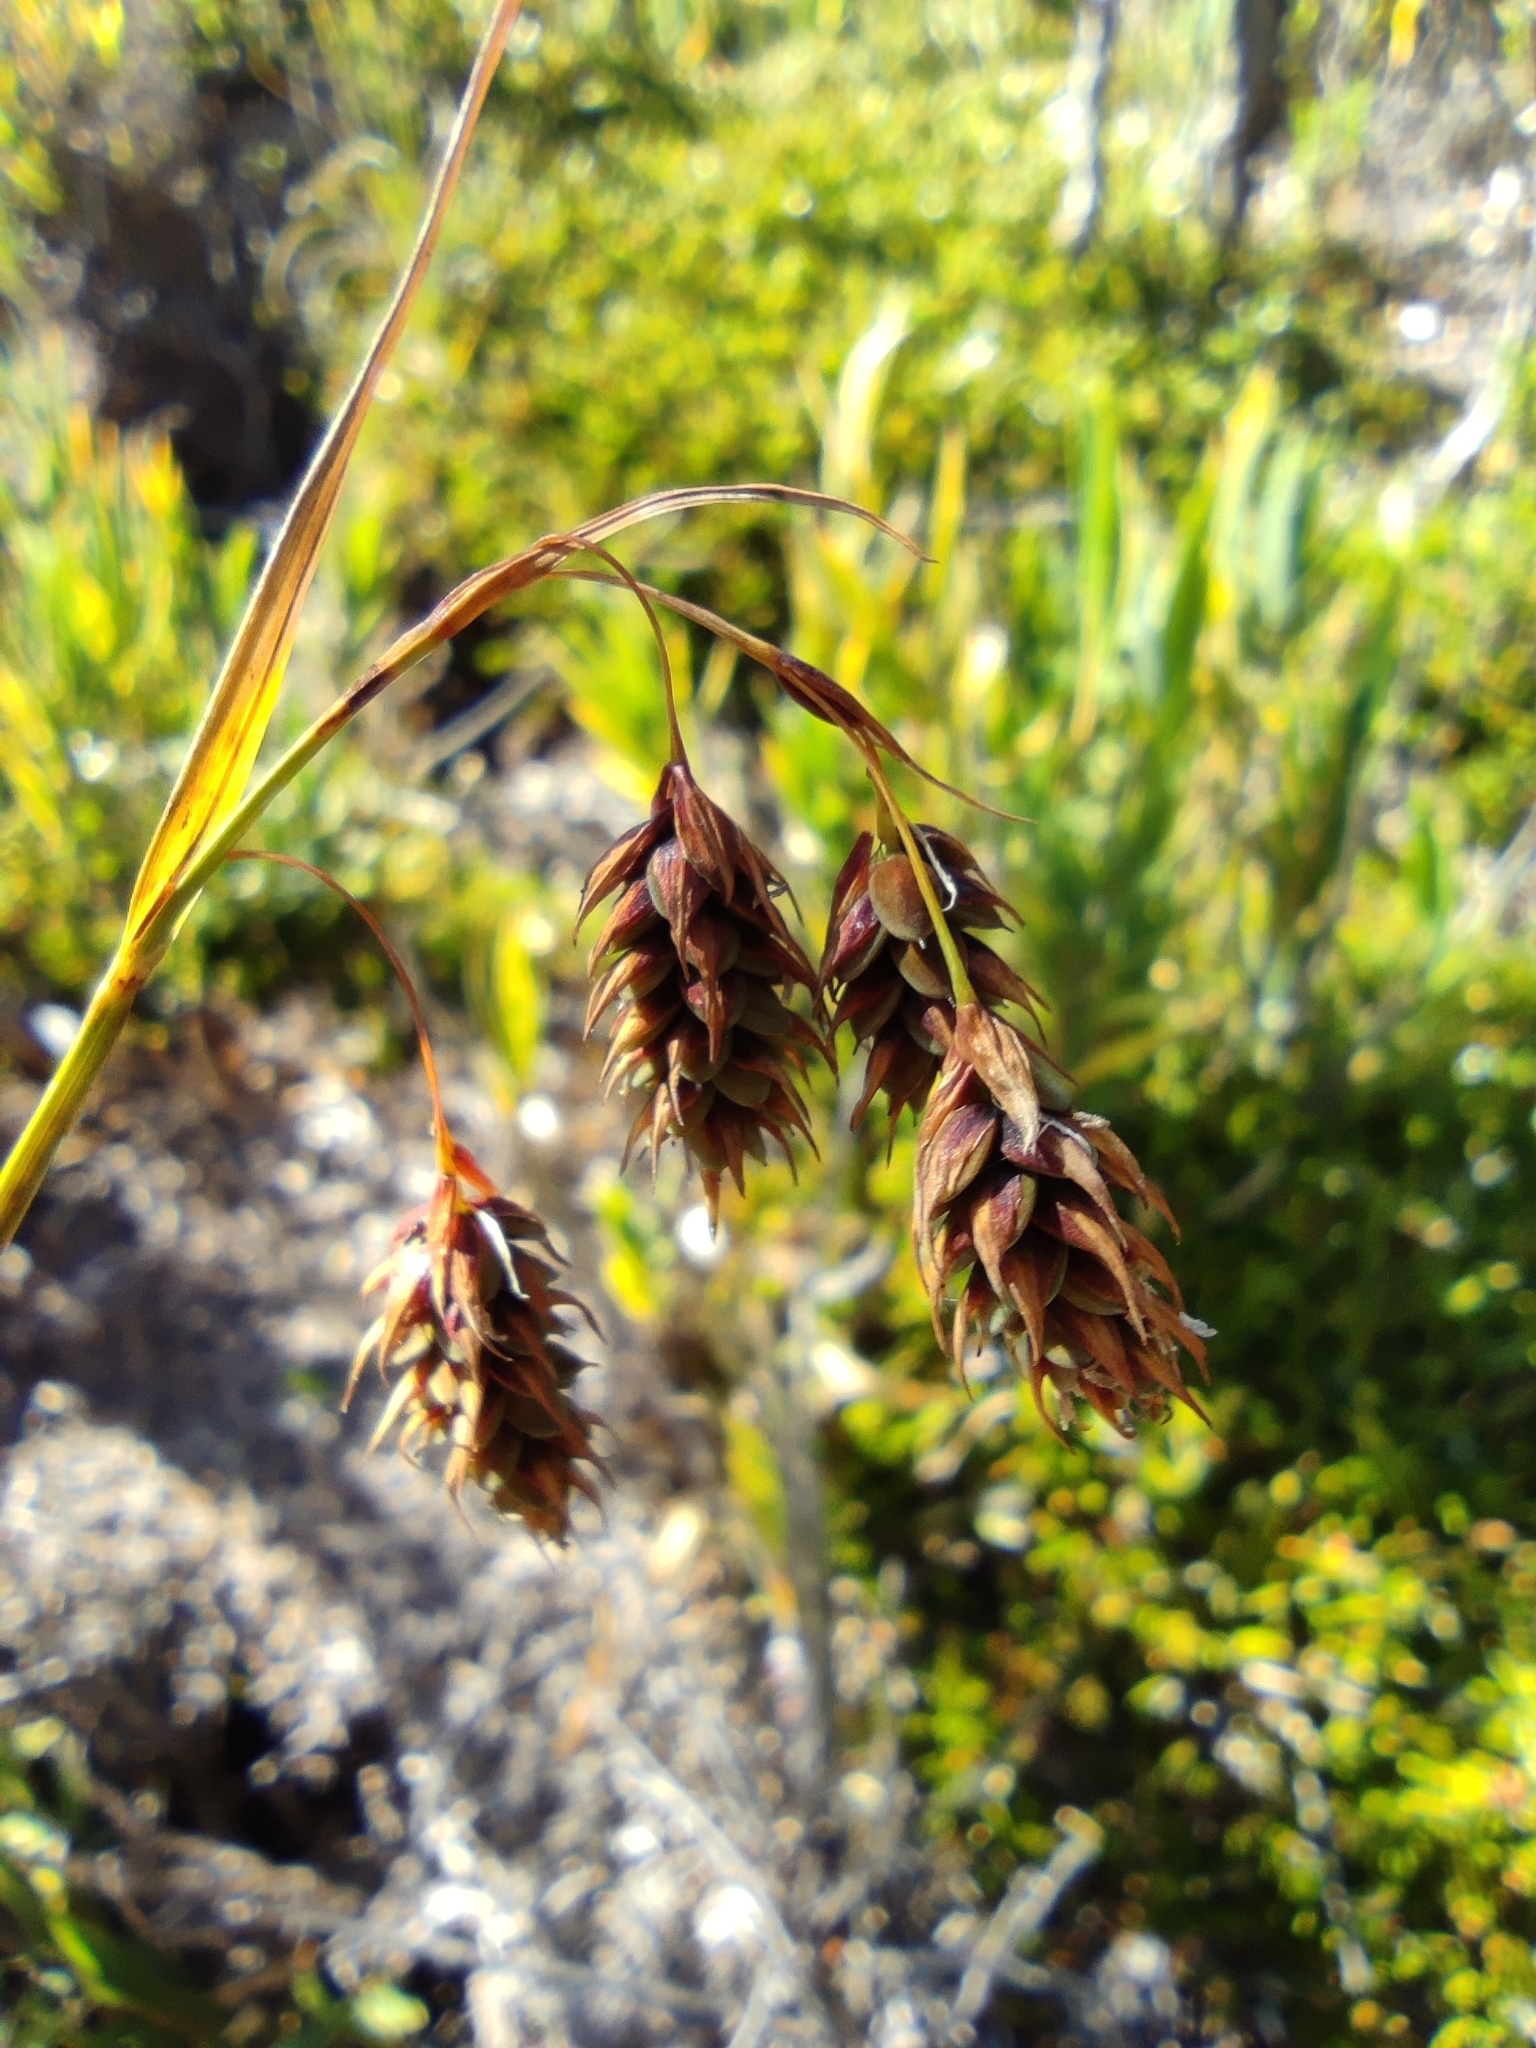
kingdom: Plantae
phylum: Tracheophyta
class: Liliopsida
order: Poales
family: Cyperaceae
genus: Carex
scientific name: Carex magellanica
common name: Bog sedge
